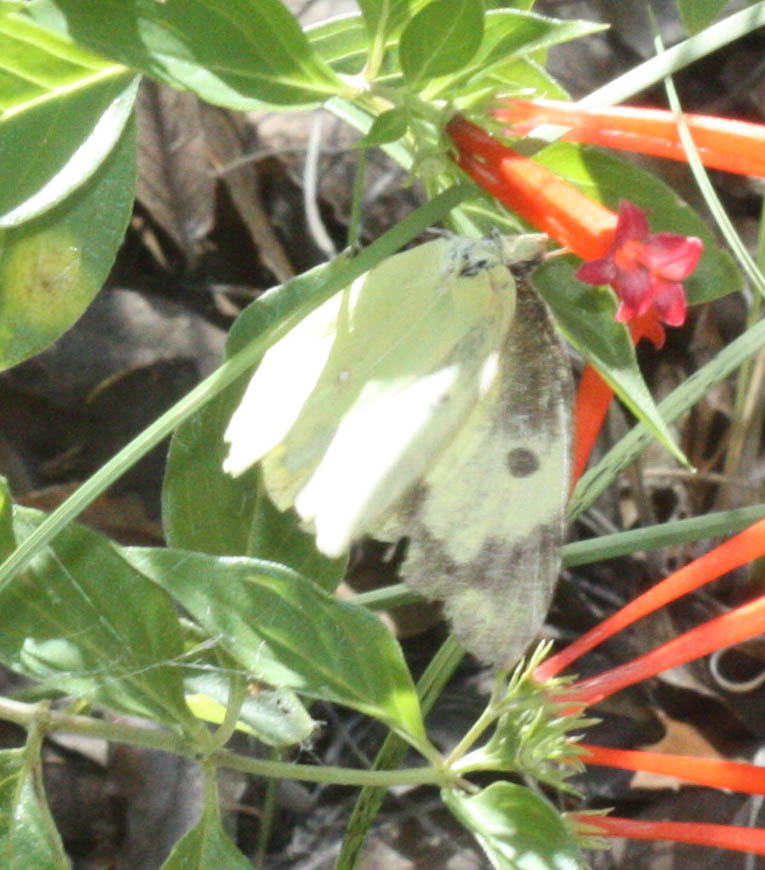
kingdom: Animalia
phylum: Arthropoda
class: Insecta
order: Lepidoptera
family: Pieridae
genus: Zerene
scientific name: Zerene cesonia
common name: Southern dogface
